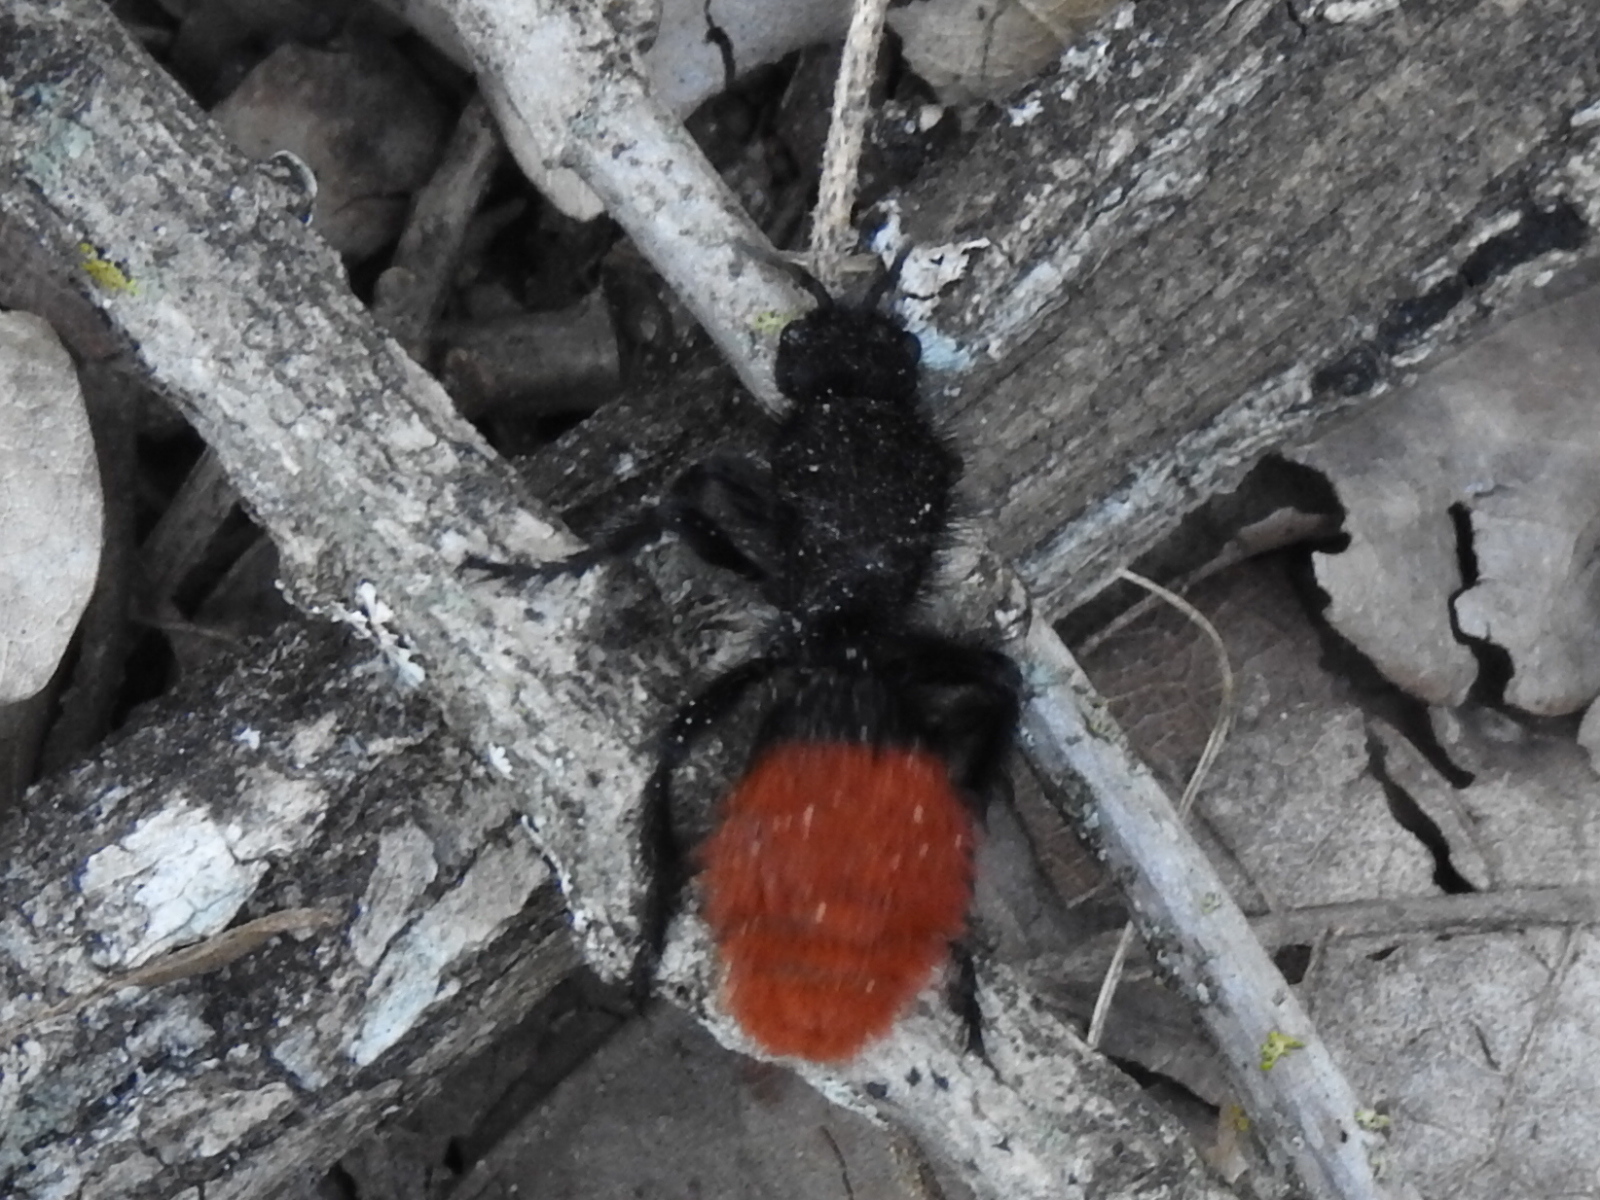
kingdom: Animalia
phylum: Arthropoda
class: Insecta
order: Hymenoptera
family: Mutillidae
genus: Dasymutilla
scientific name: Dasymutilla
